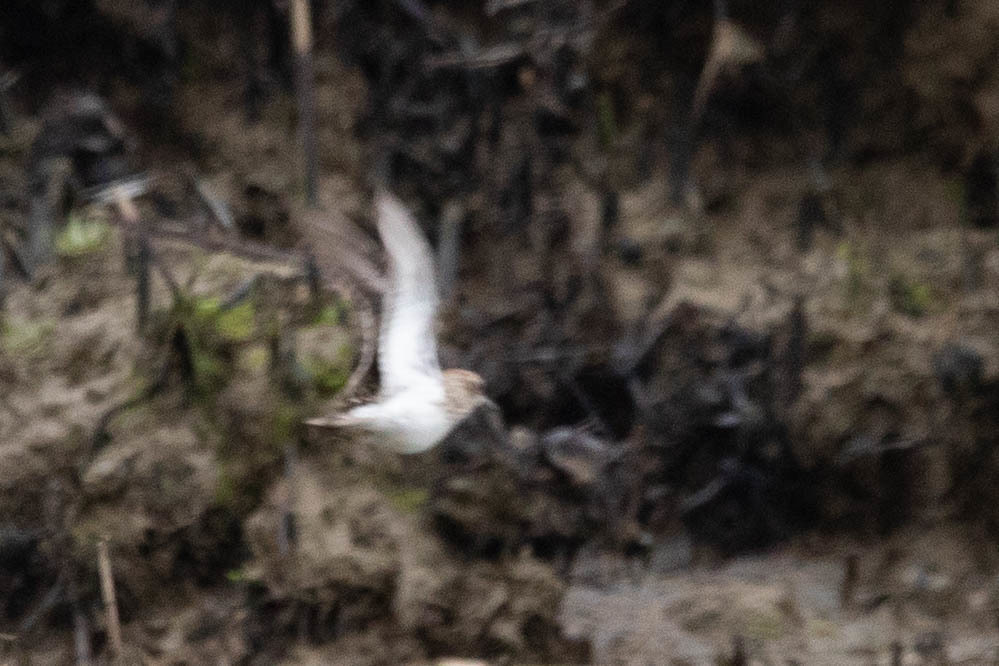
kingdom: Animalia
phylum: Chordata
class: Aves
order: Charadriiformes
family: Scolopacidae
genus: Calidris
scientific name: Calidris minutilla
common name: Least sandpiper
